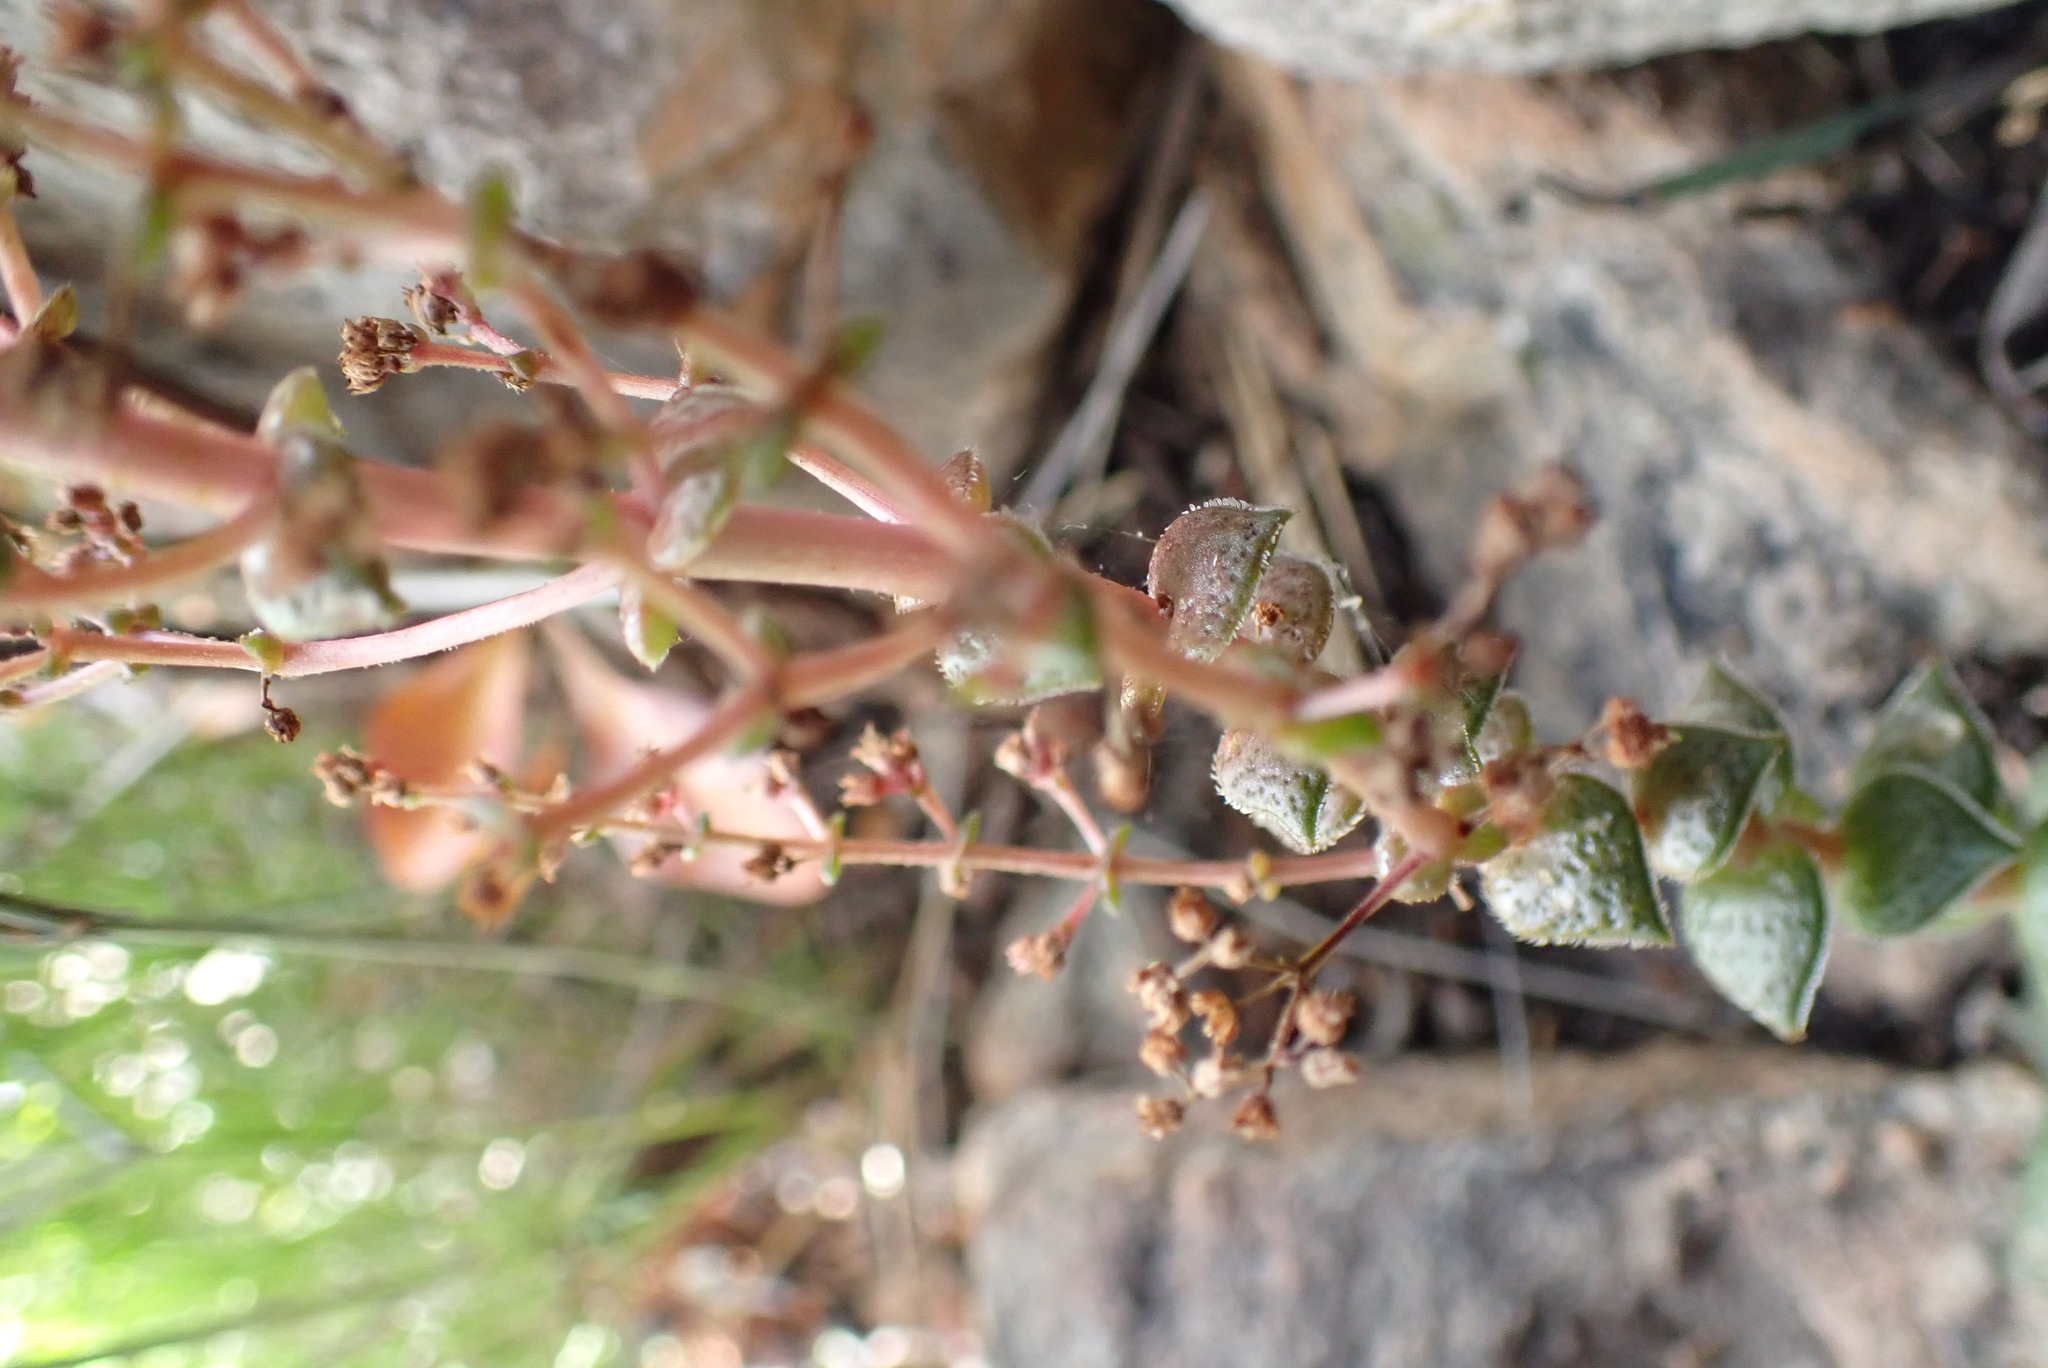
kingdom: Plantae
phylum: Tracheophyta
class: Magnoliopsida
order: Saxifragales
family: Crassulaceae
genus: Crassula
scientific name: Crassula montana
